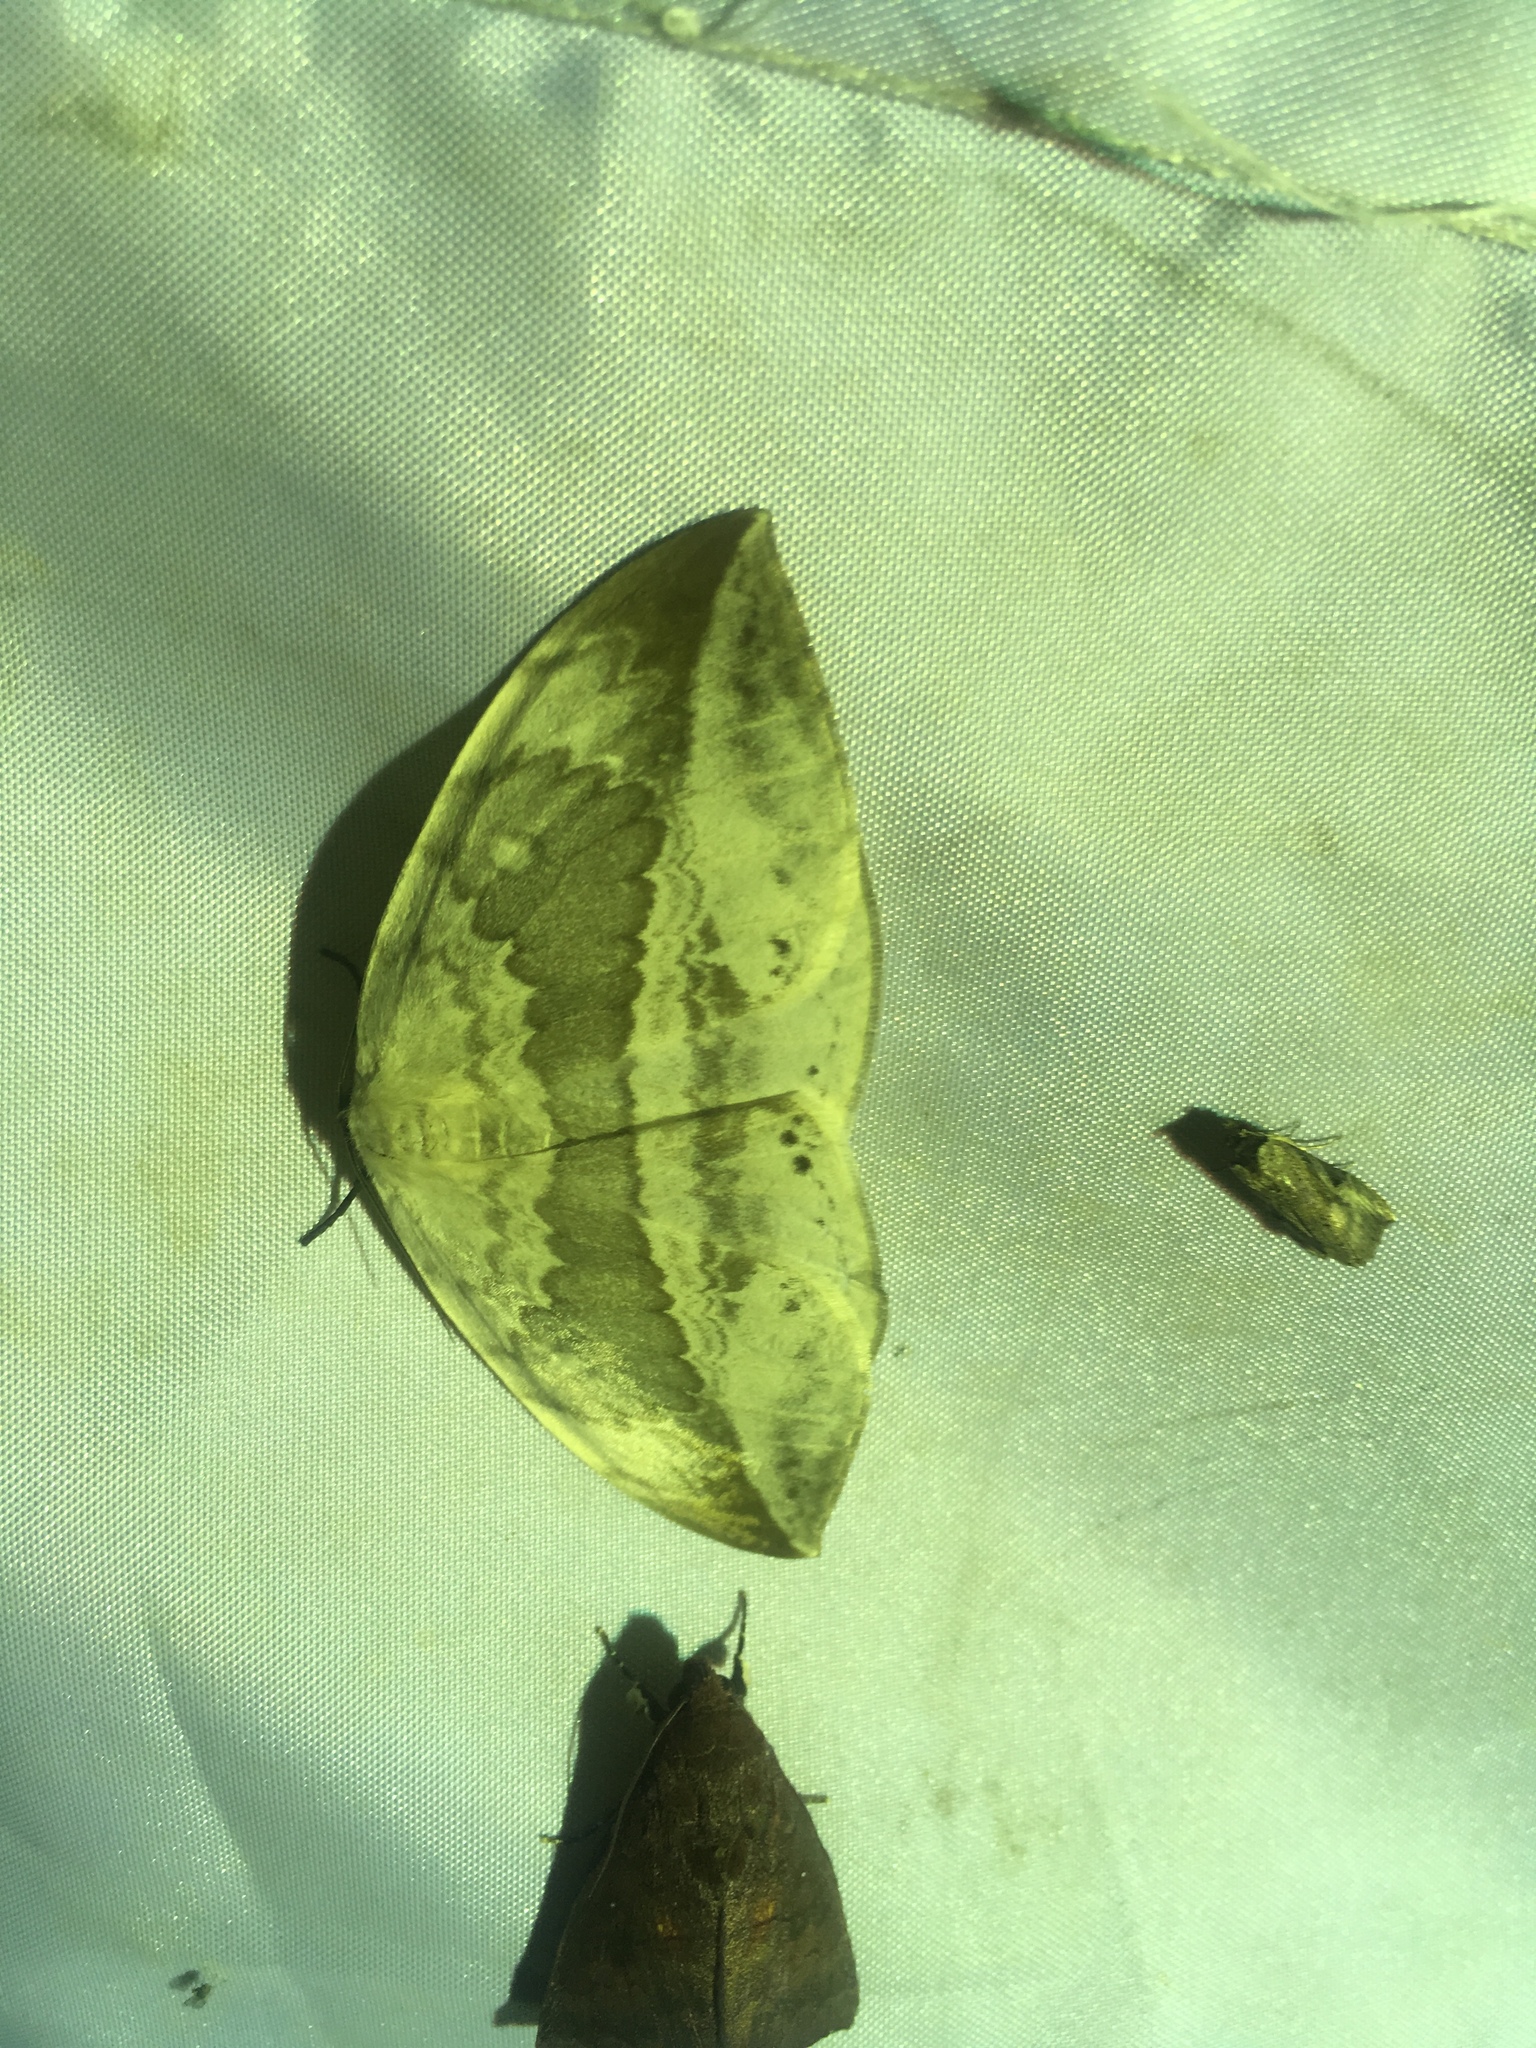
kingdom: Animalia
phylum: Arthropoda
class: Insecta
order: Lepidoptera
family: Drepanidae
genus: Cyclidia
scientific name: Cyclidia substigmaria
